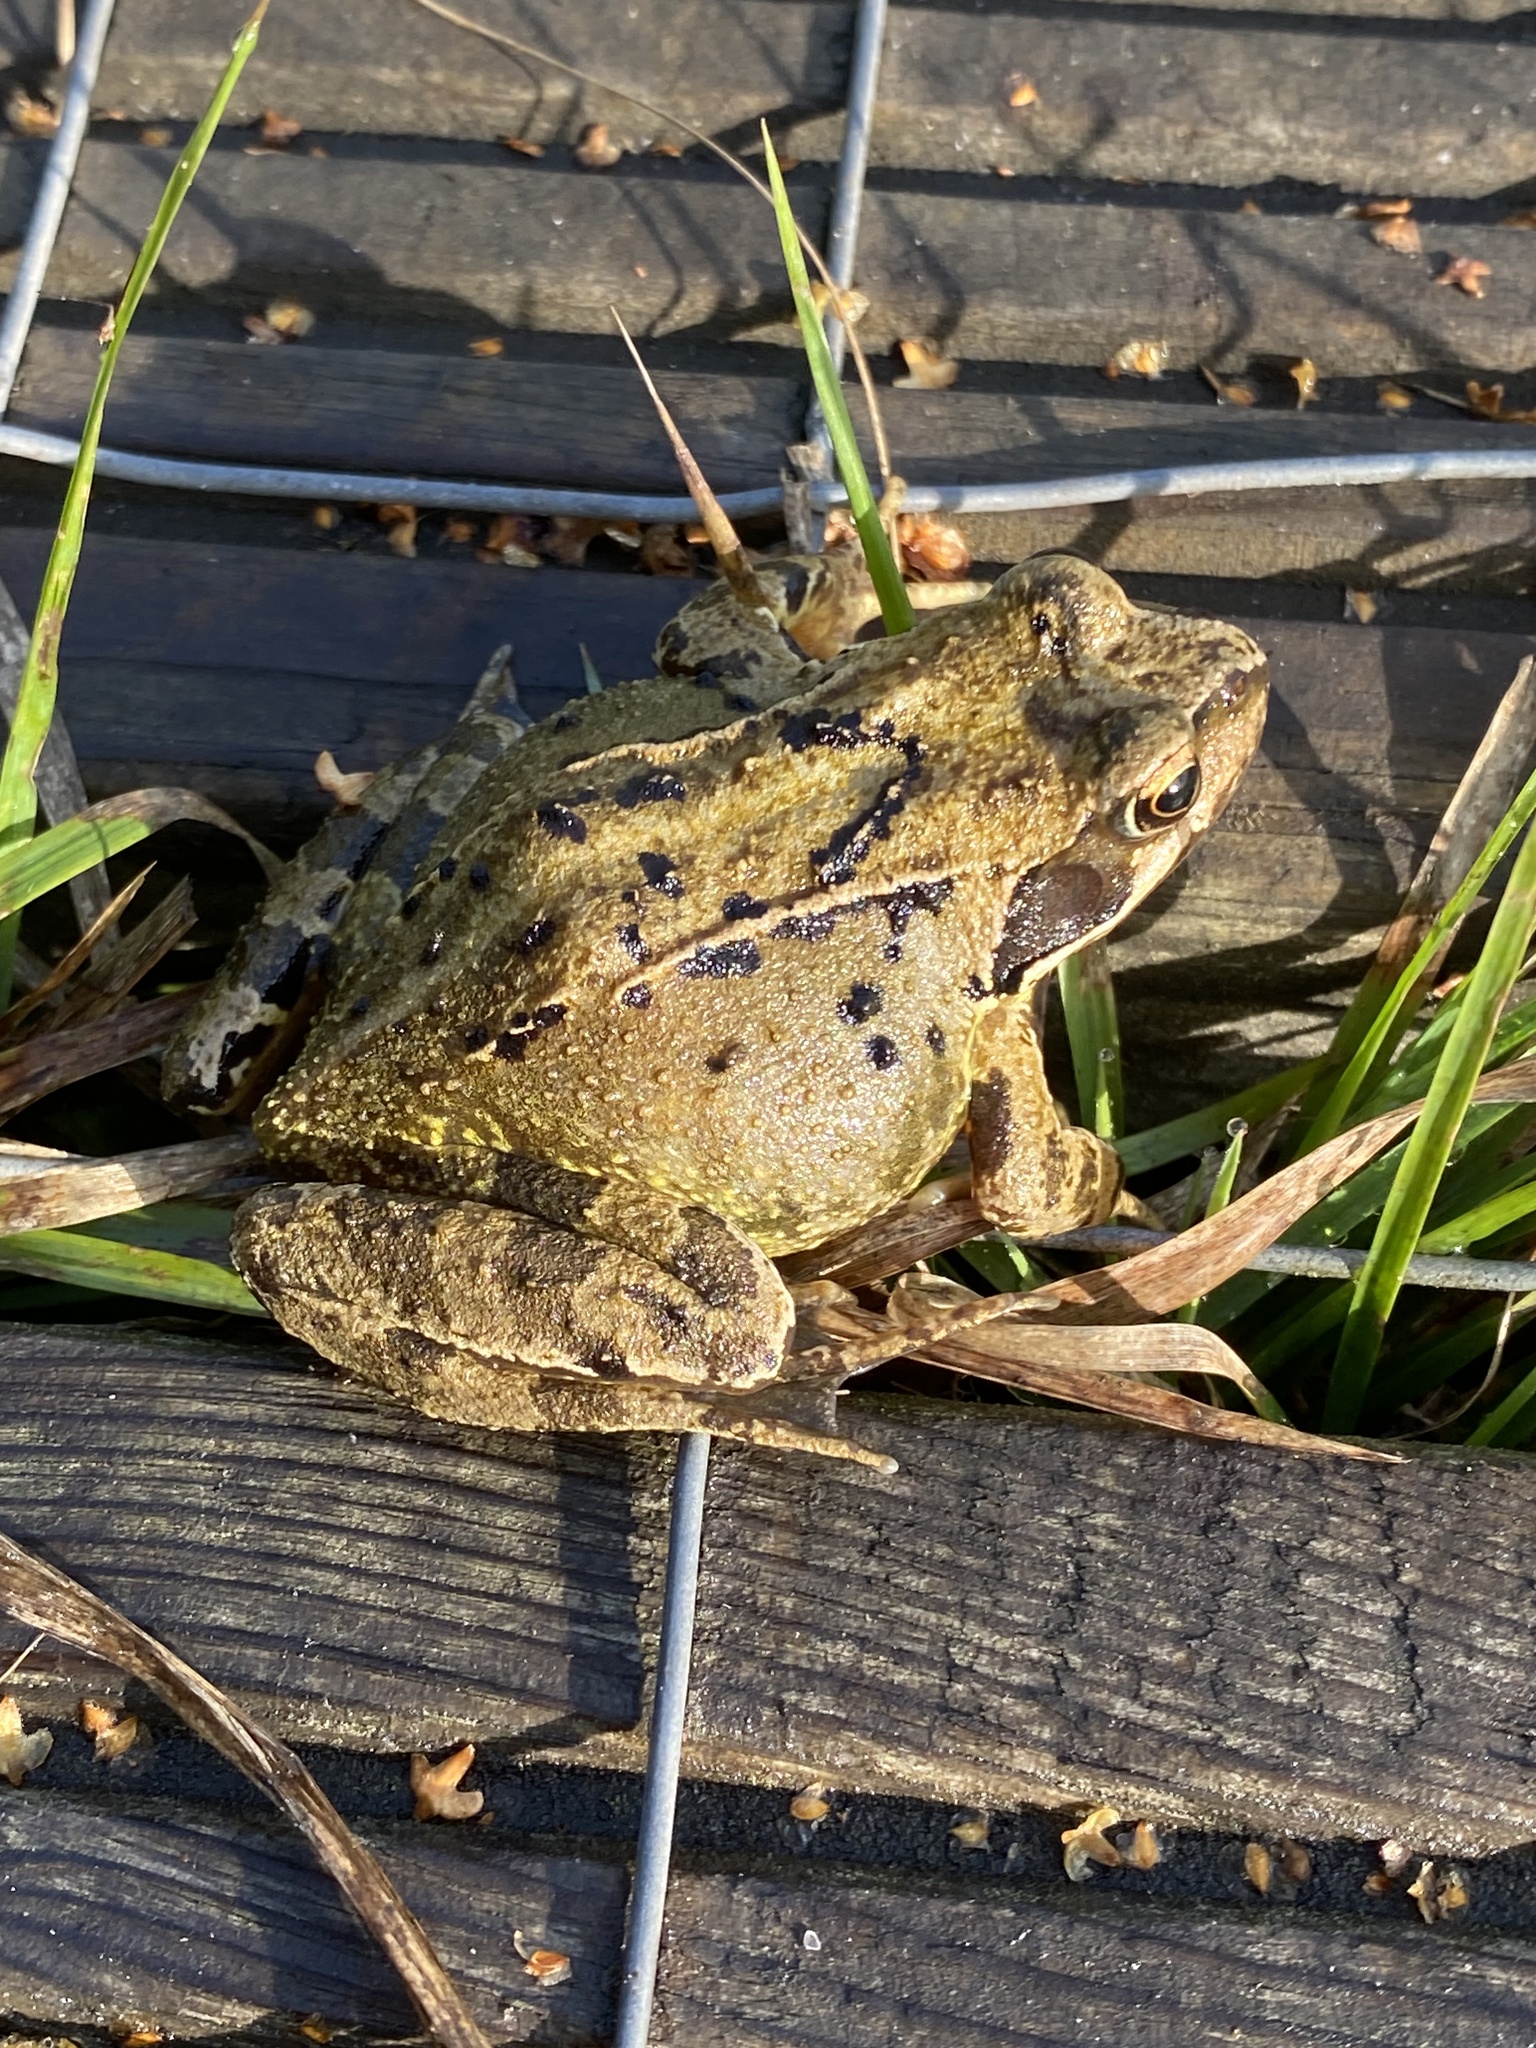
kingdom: Animalia
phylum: Chordata
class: Amphibia
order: Anura
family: Ranidae
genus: Rana
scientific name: Rana temporaria
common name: Common frog
